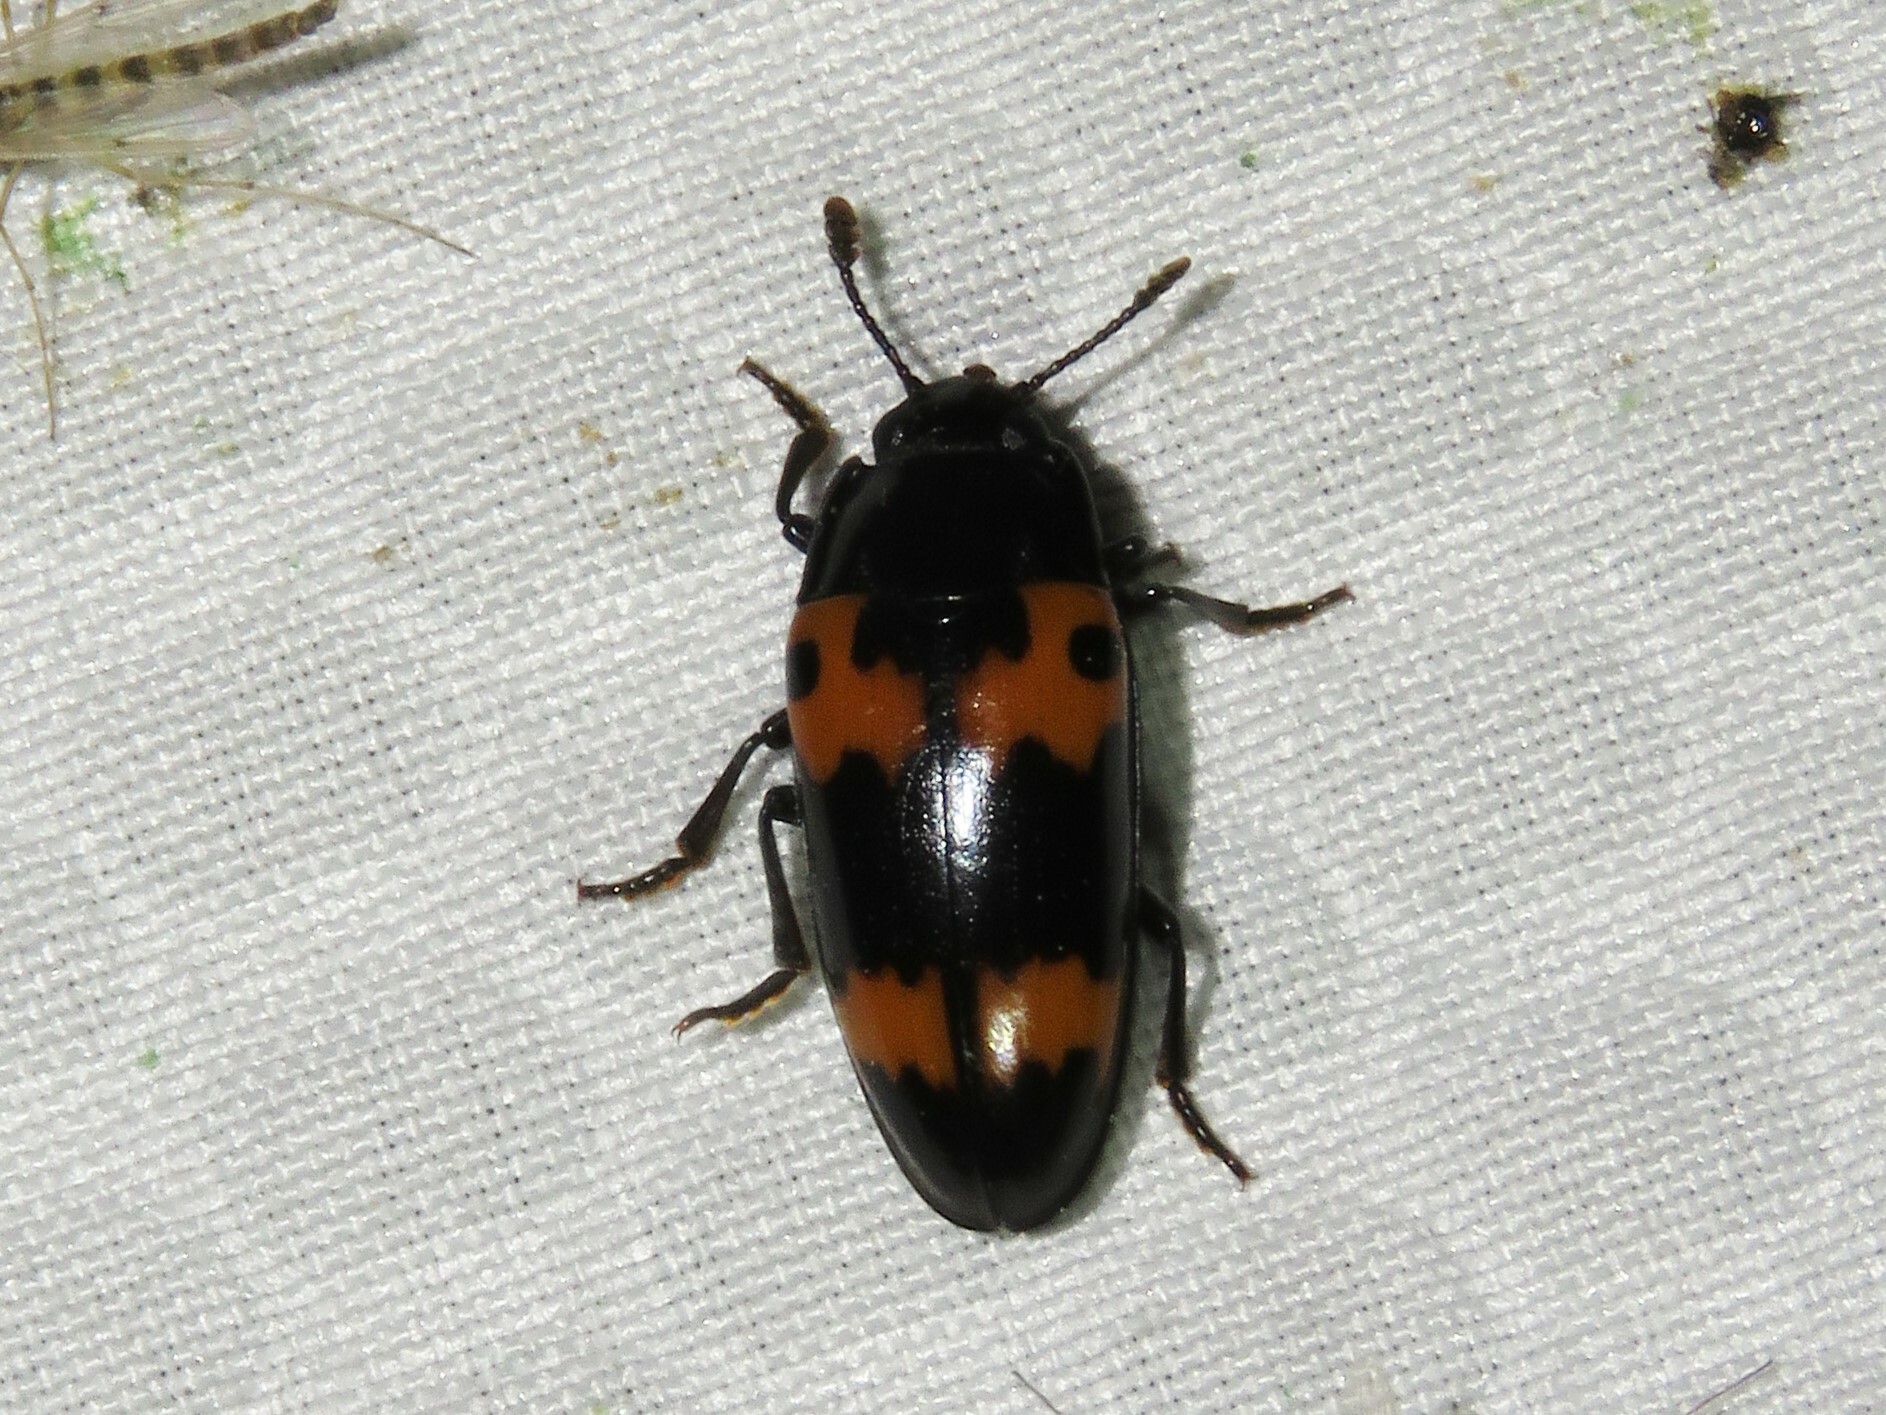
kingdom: Animalia
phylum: Arthropoda
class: Insecta
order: Coleoptera
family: Erotylidae
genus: Megalodacne
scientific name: Megalodacne fasciata
